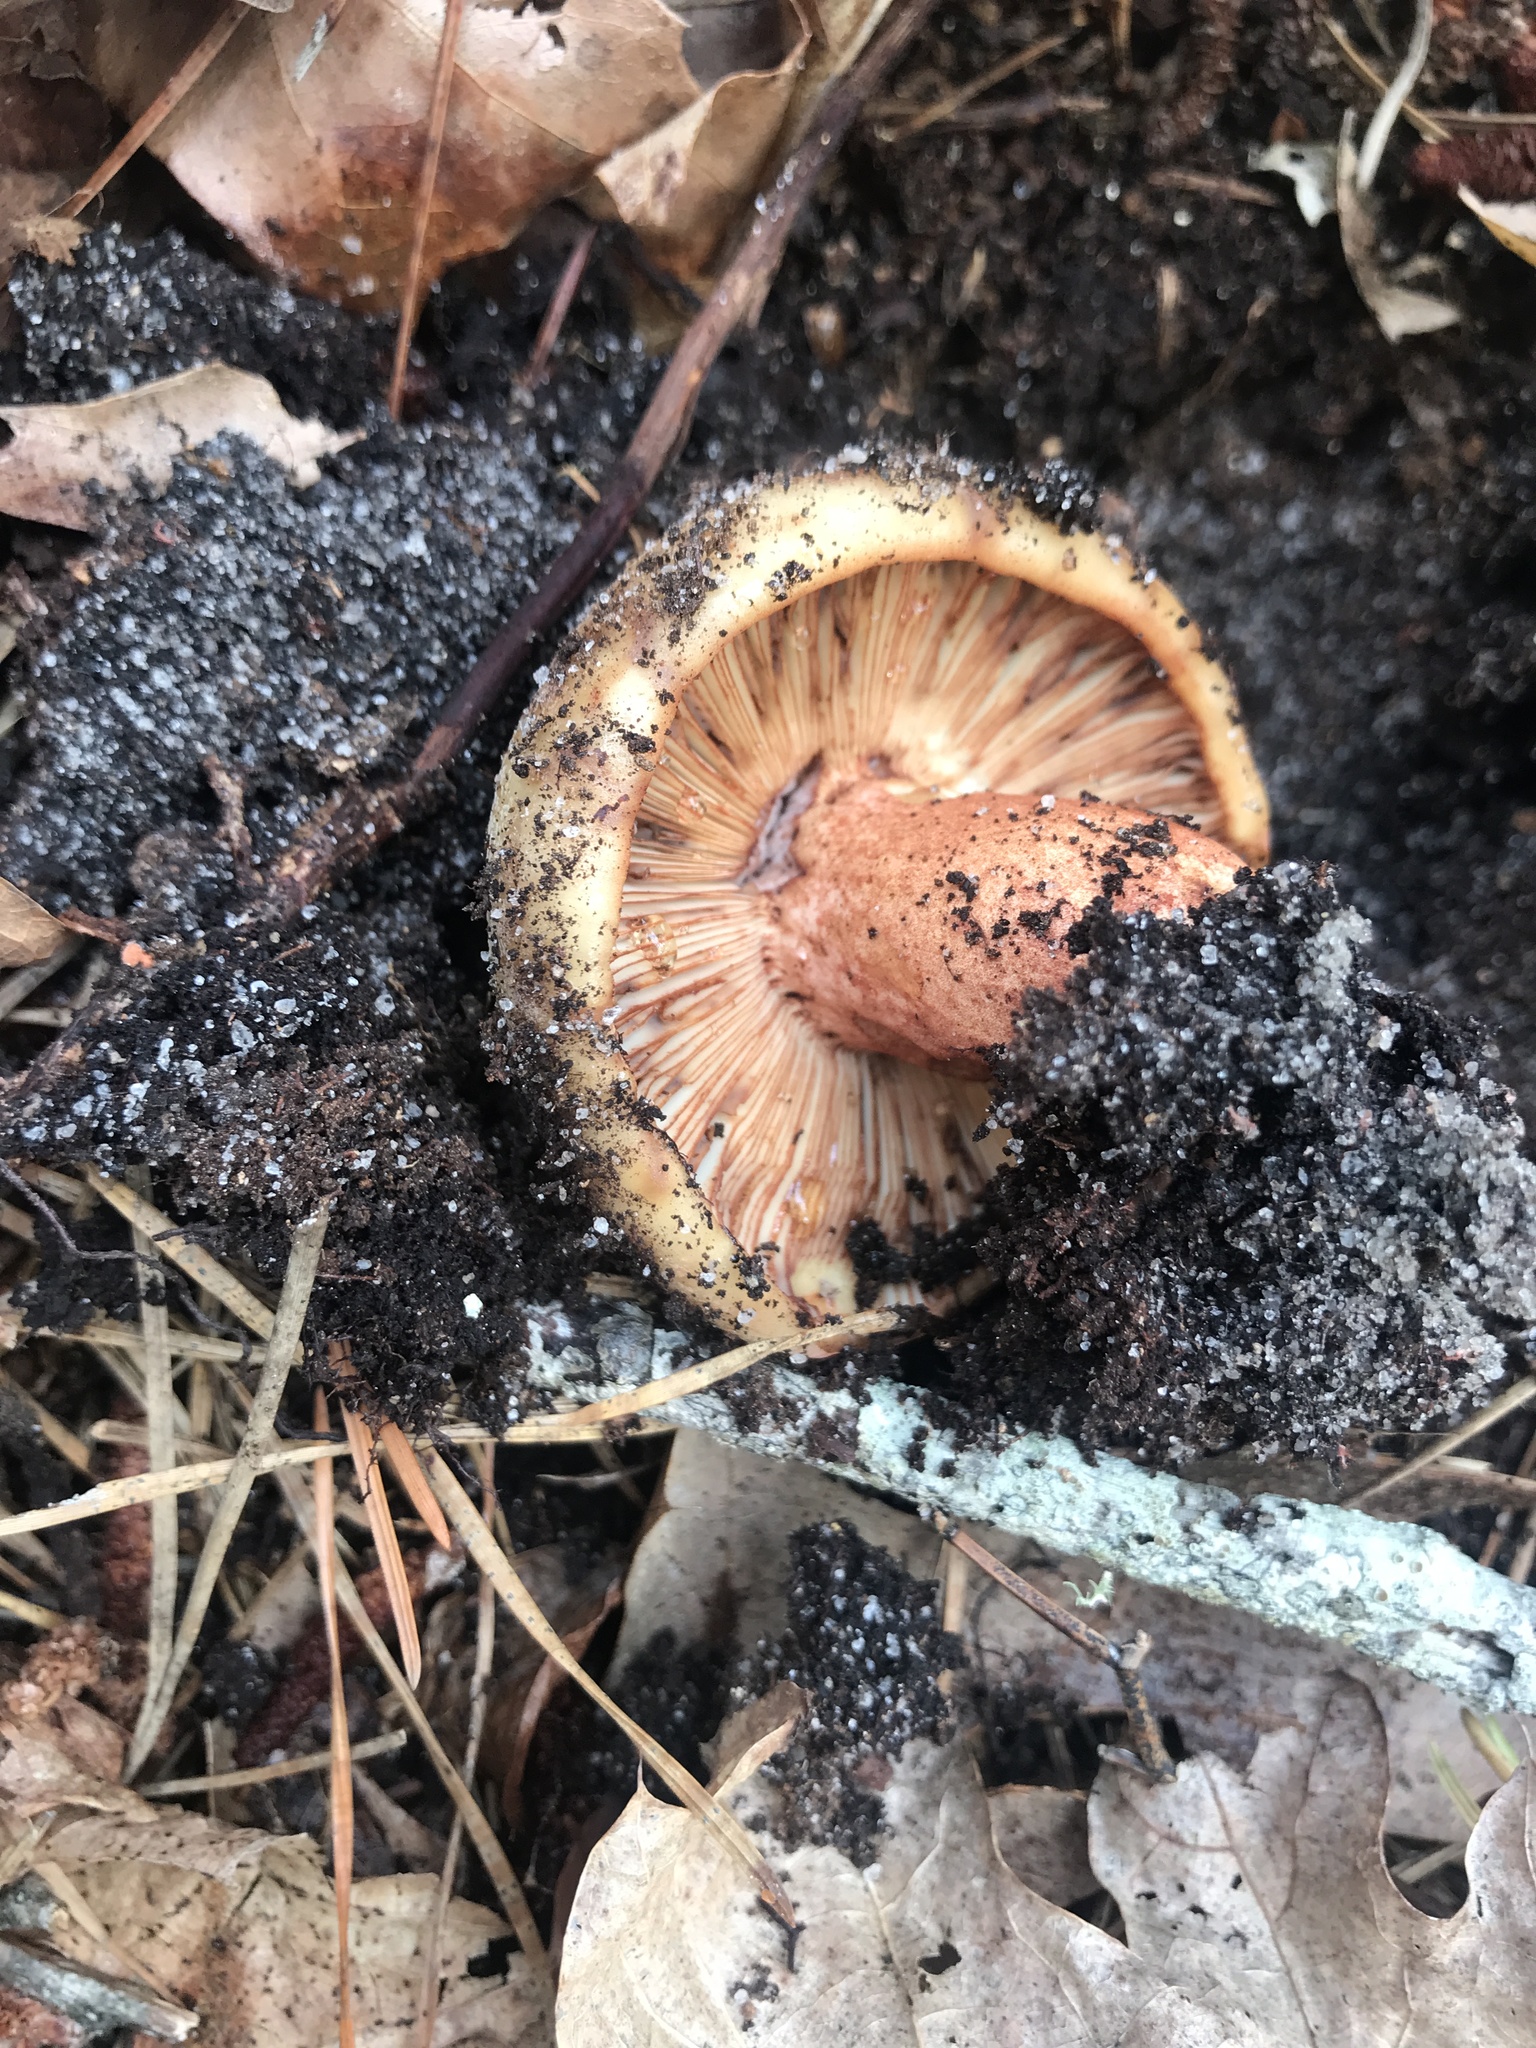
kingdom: Fungi
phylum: Basidiomycota
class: Agaricomycetes
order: Russulales
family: Russulaceae
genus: Russula
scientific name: Russula ventricosipes
